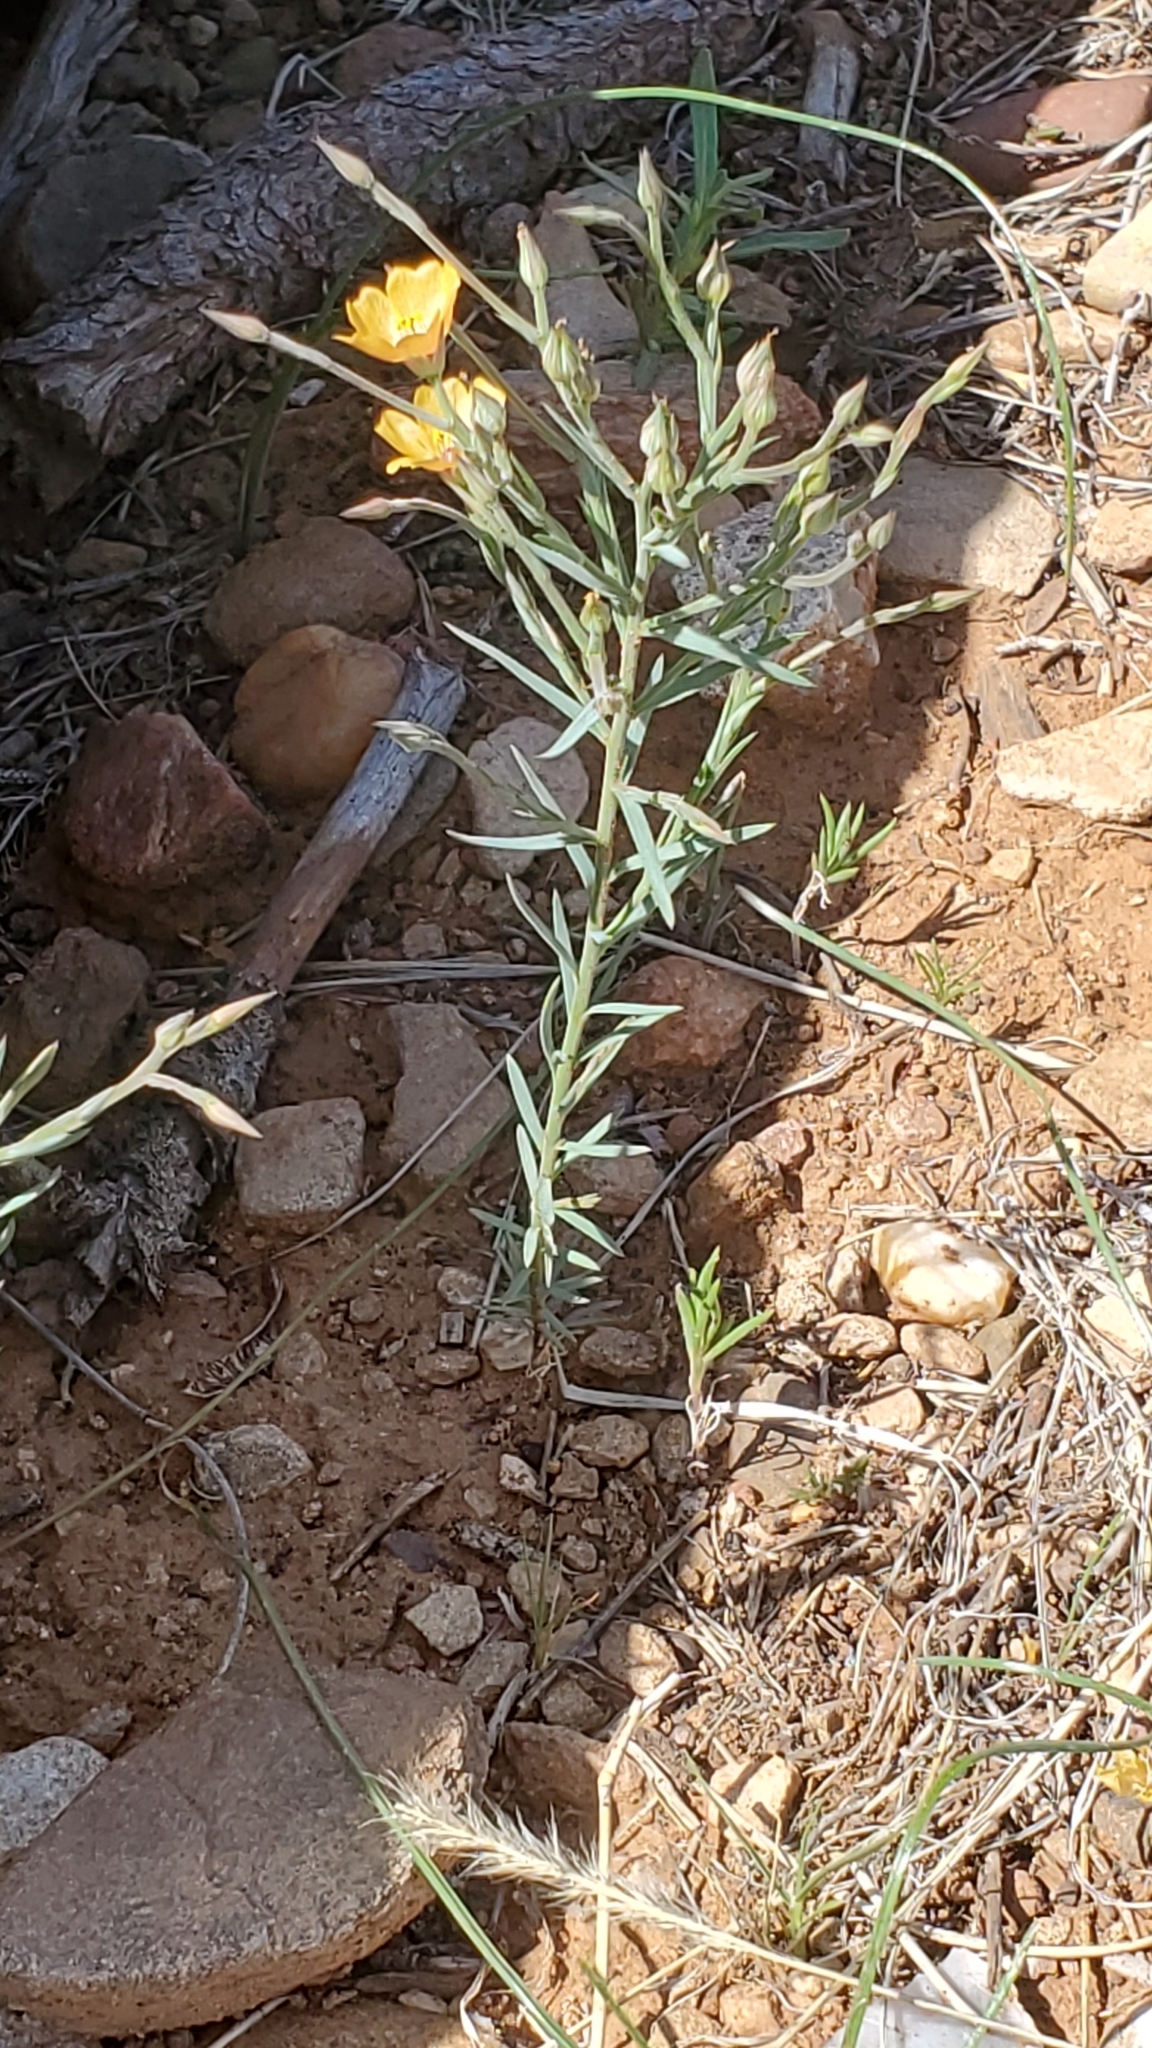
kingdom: Plantae
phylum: Tracheophyta
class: Magnoliopsida
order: Malpighiales
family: Linaceae
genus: Linum
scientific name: Linum puberulum
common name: Plains flax
